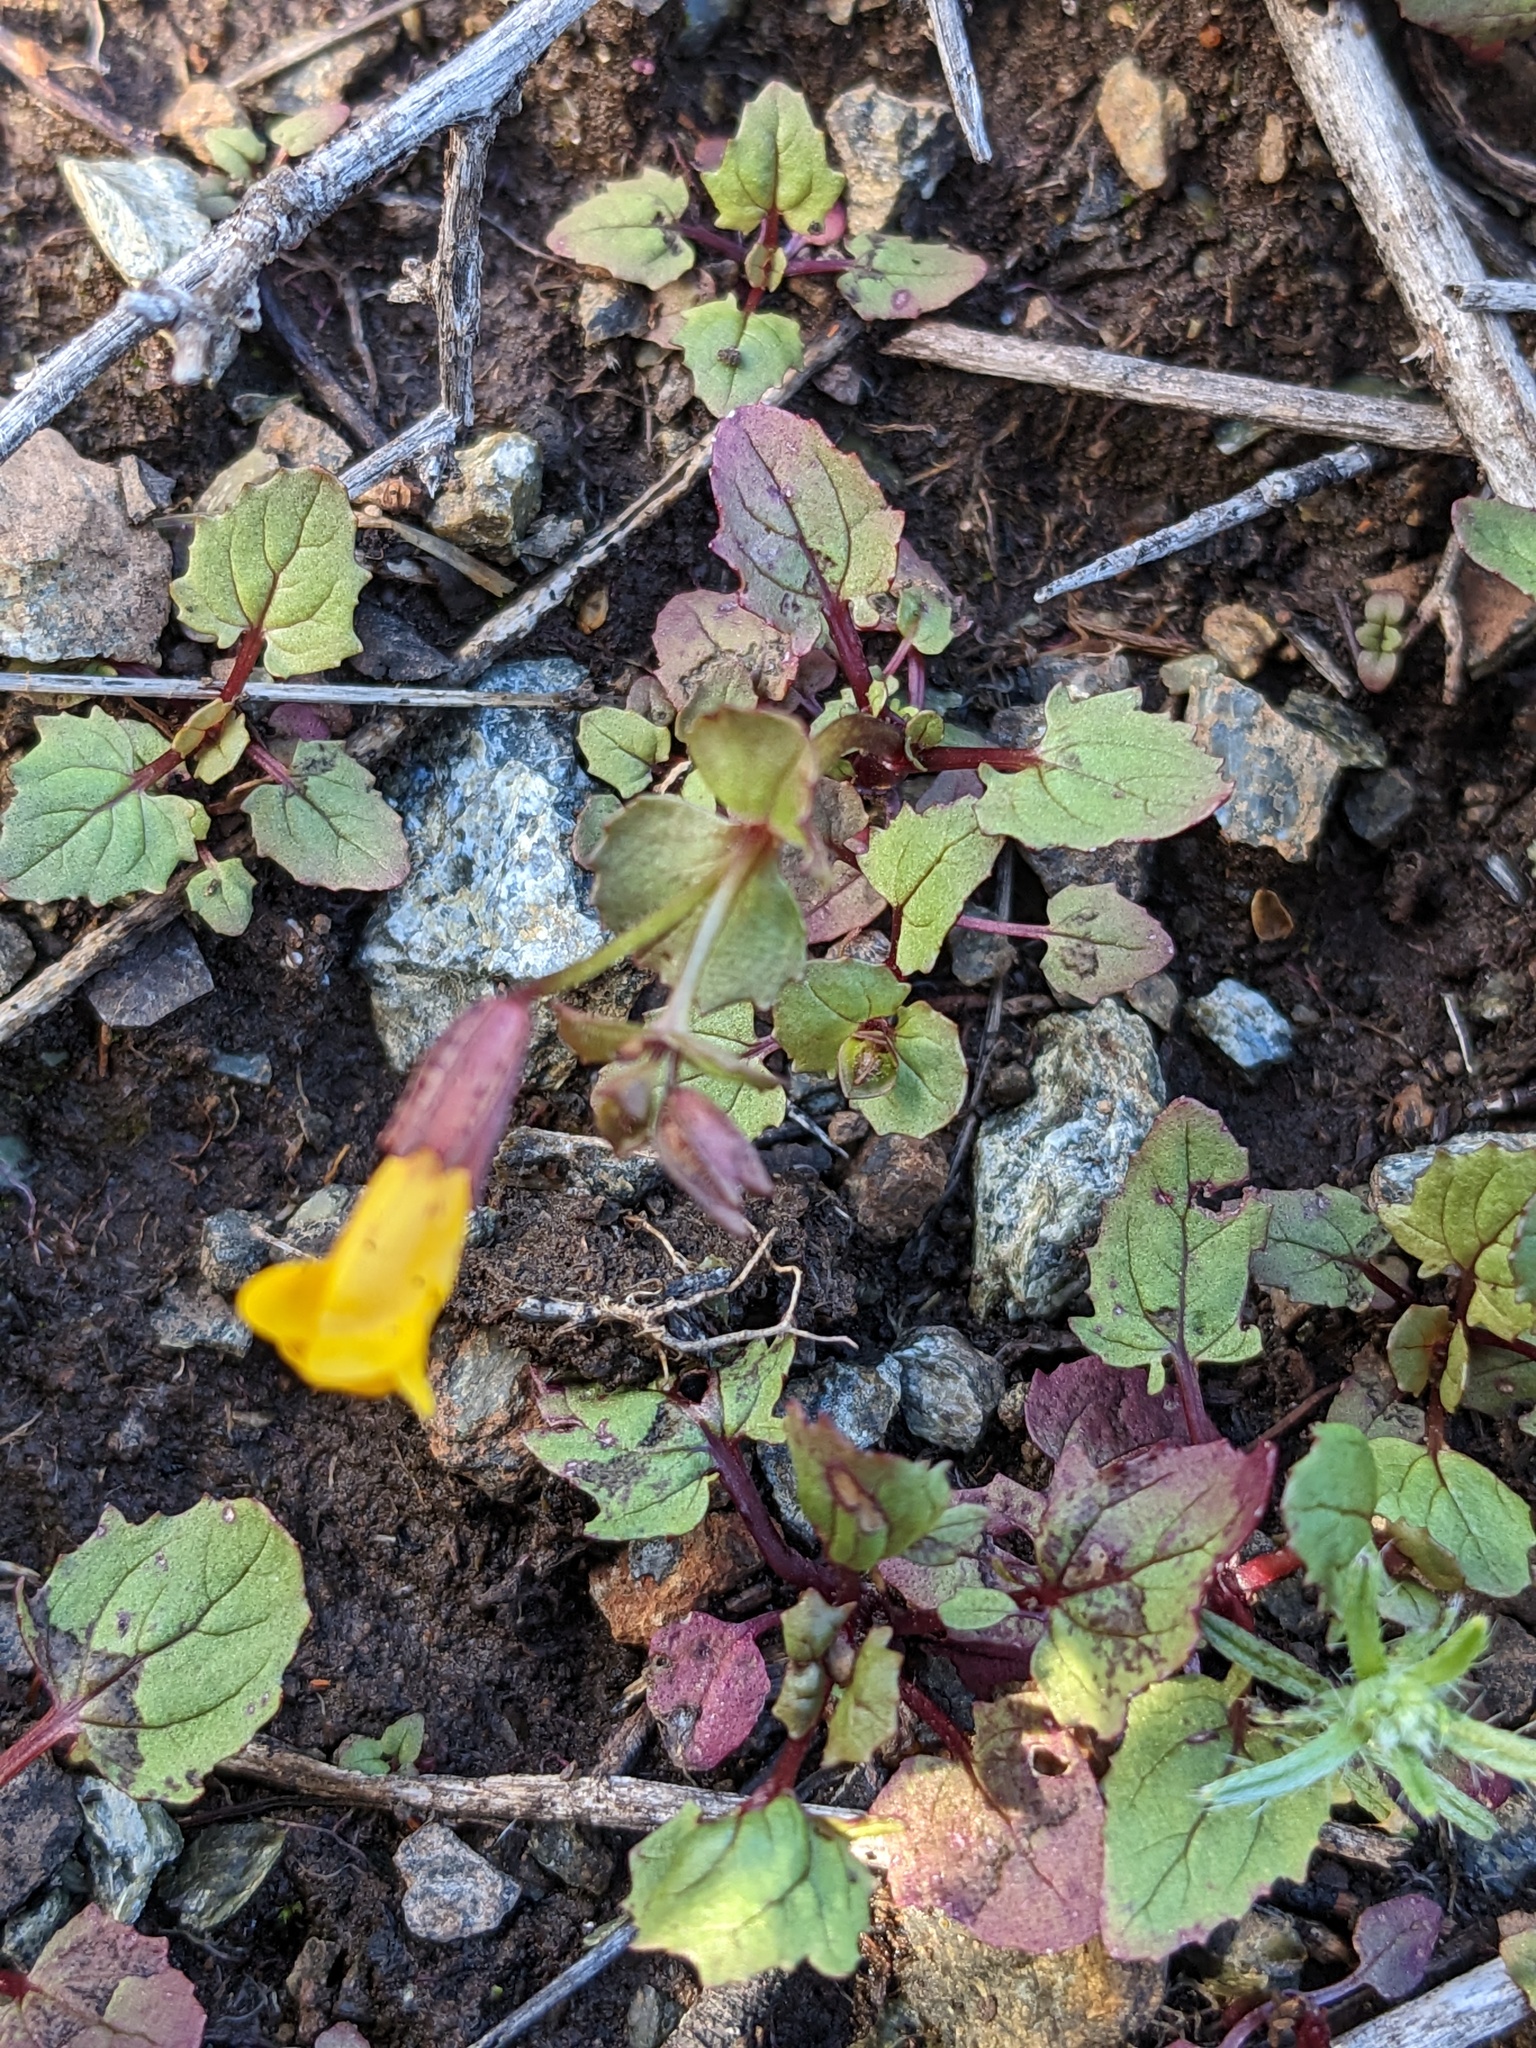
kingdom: Plantae
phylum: Tracheophyta
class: Magnoliopsida
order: Lamiales
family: Phrymaceae
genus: Erythranthe
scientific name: Erythranthe serpentinicola
